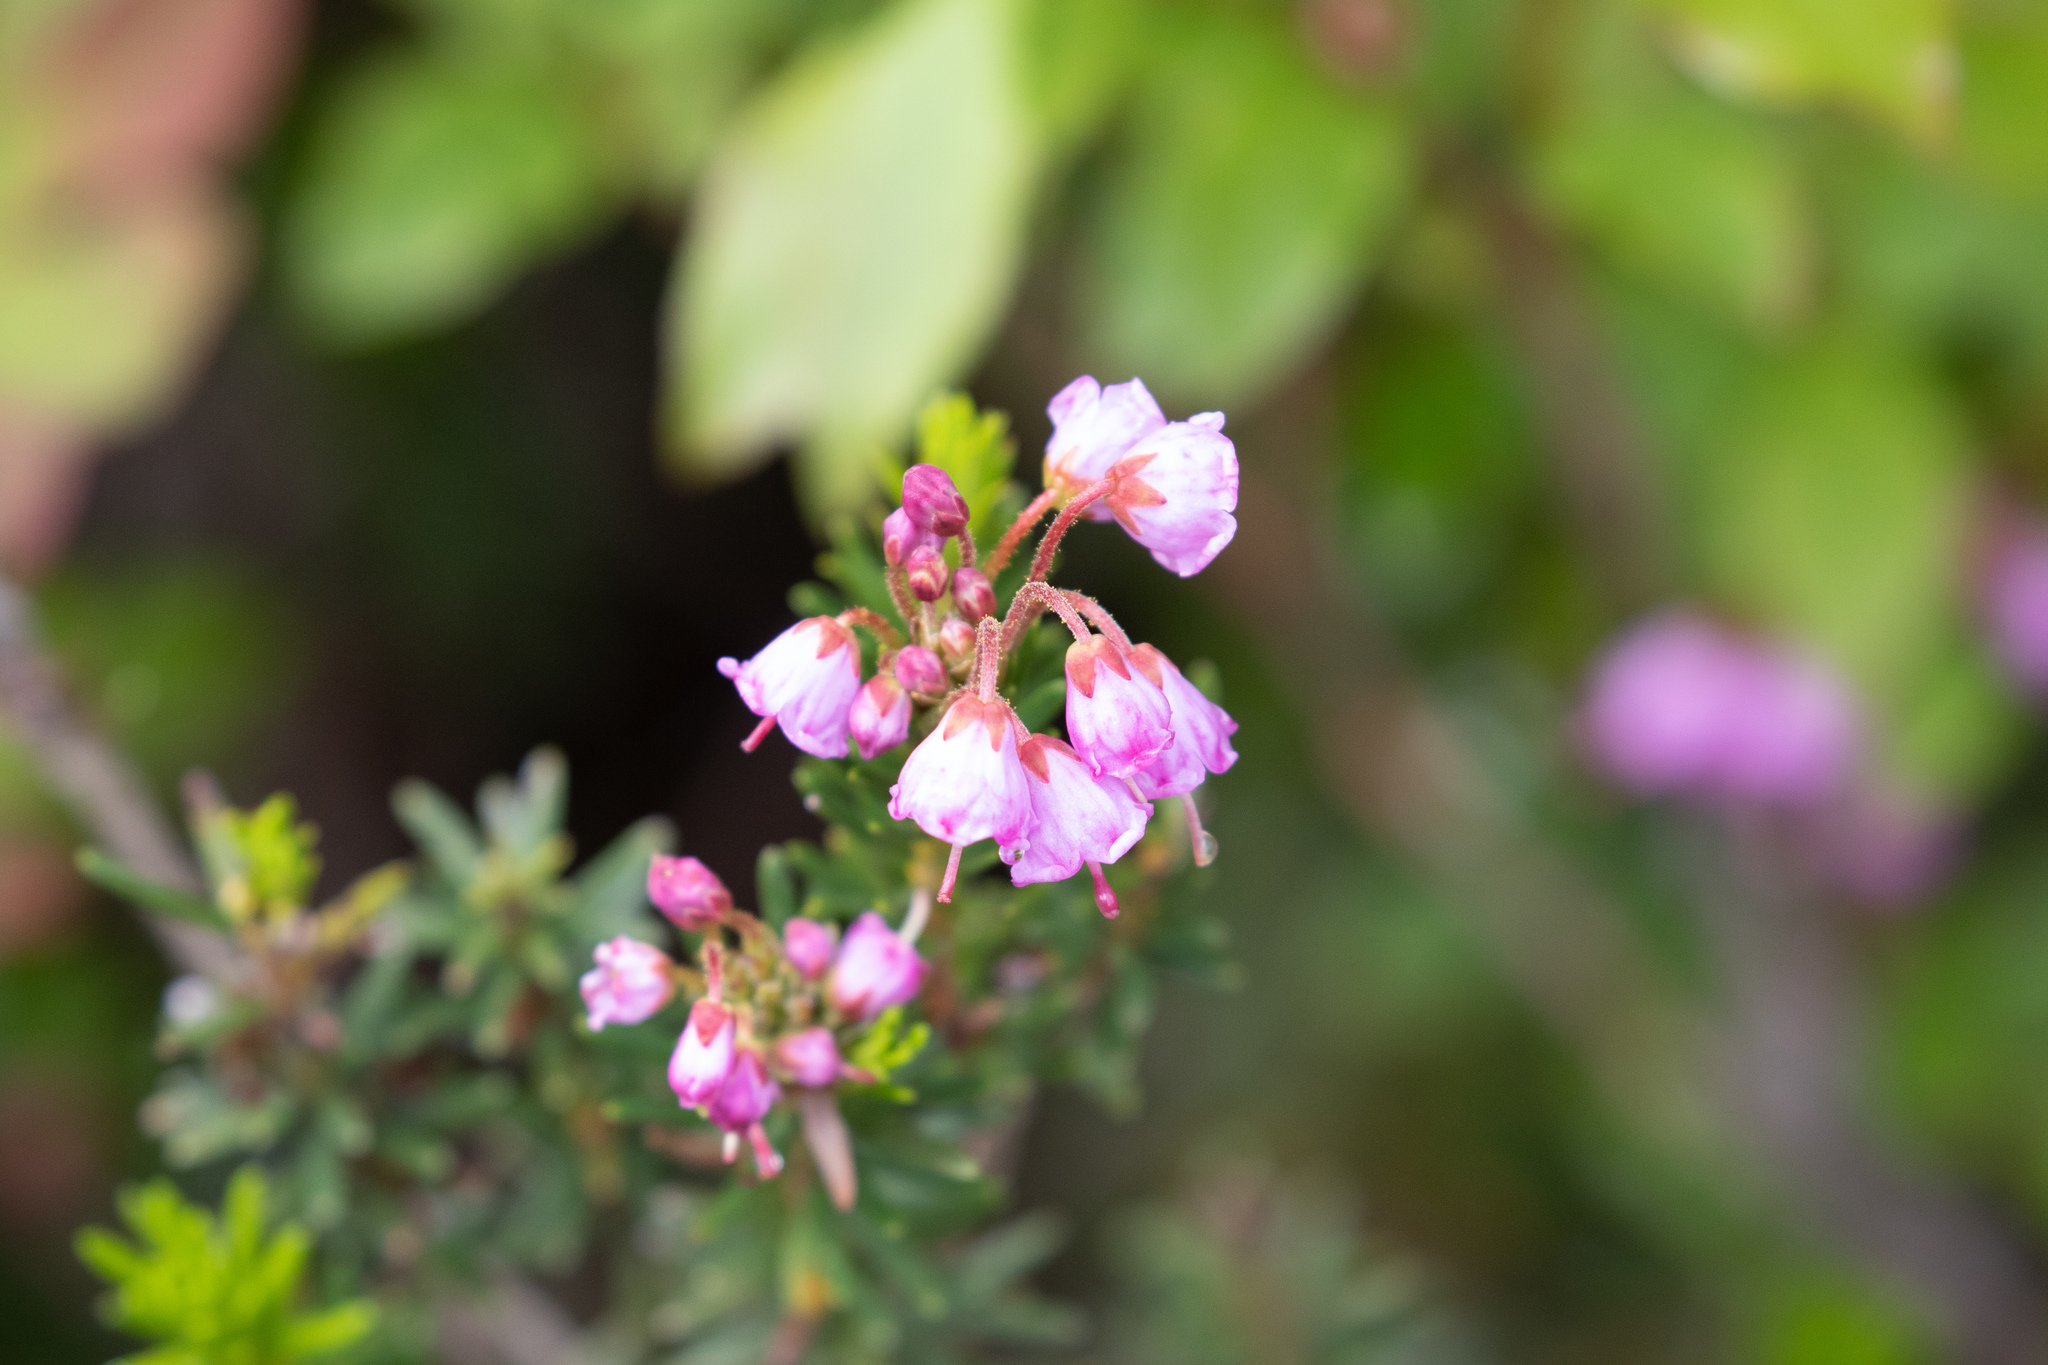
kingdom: Plantae
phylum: Tracheophyta
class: Magnoliopsida
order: Ericales
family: Ericaceae
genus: Phyllodoce
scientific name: Phyllodoce empetriformis
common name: Pink mountain heather
